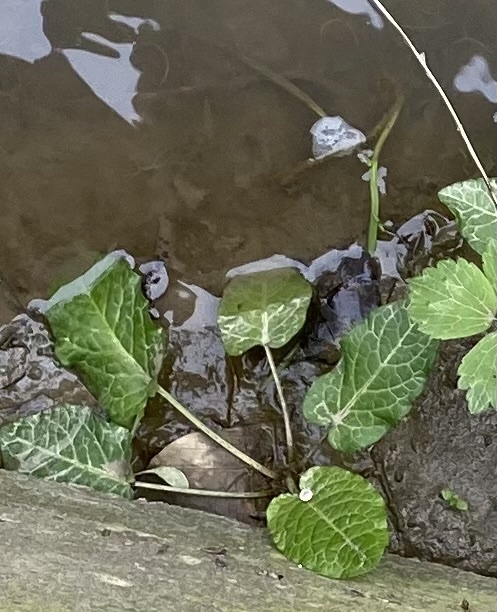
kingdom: Plantae
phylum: Tracheophyta
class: Magnoliopsida
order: Caryophyllales
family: Polygonaceae
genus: Rumex
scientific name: Rumex obtusifolius
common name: Bitter dock
